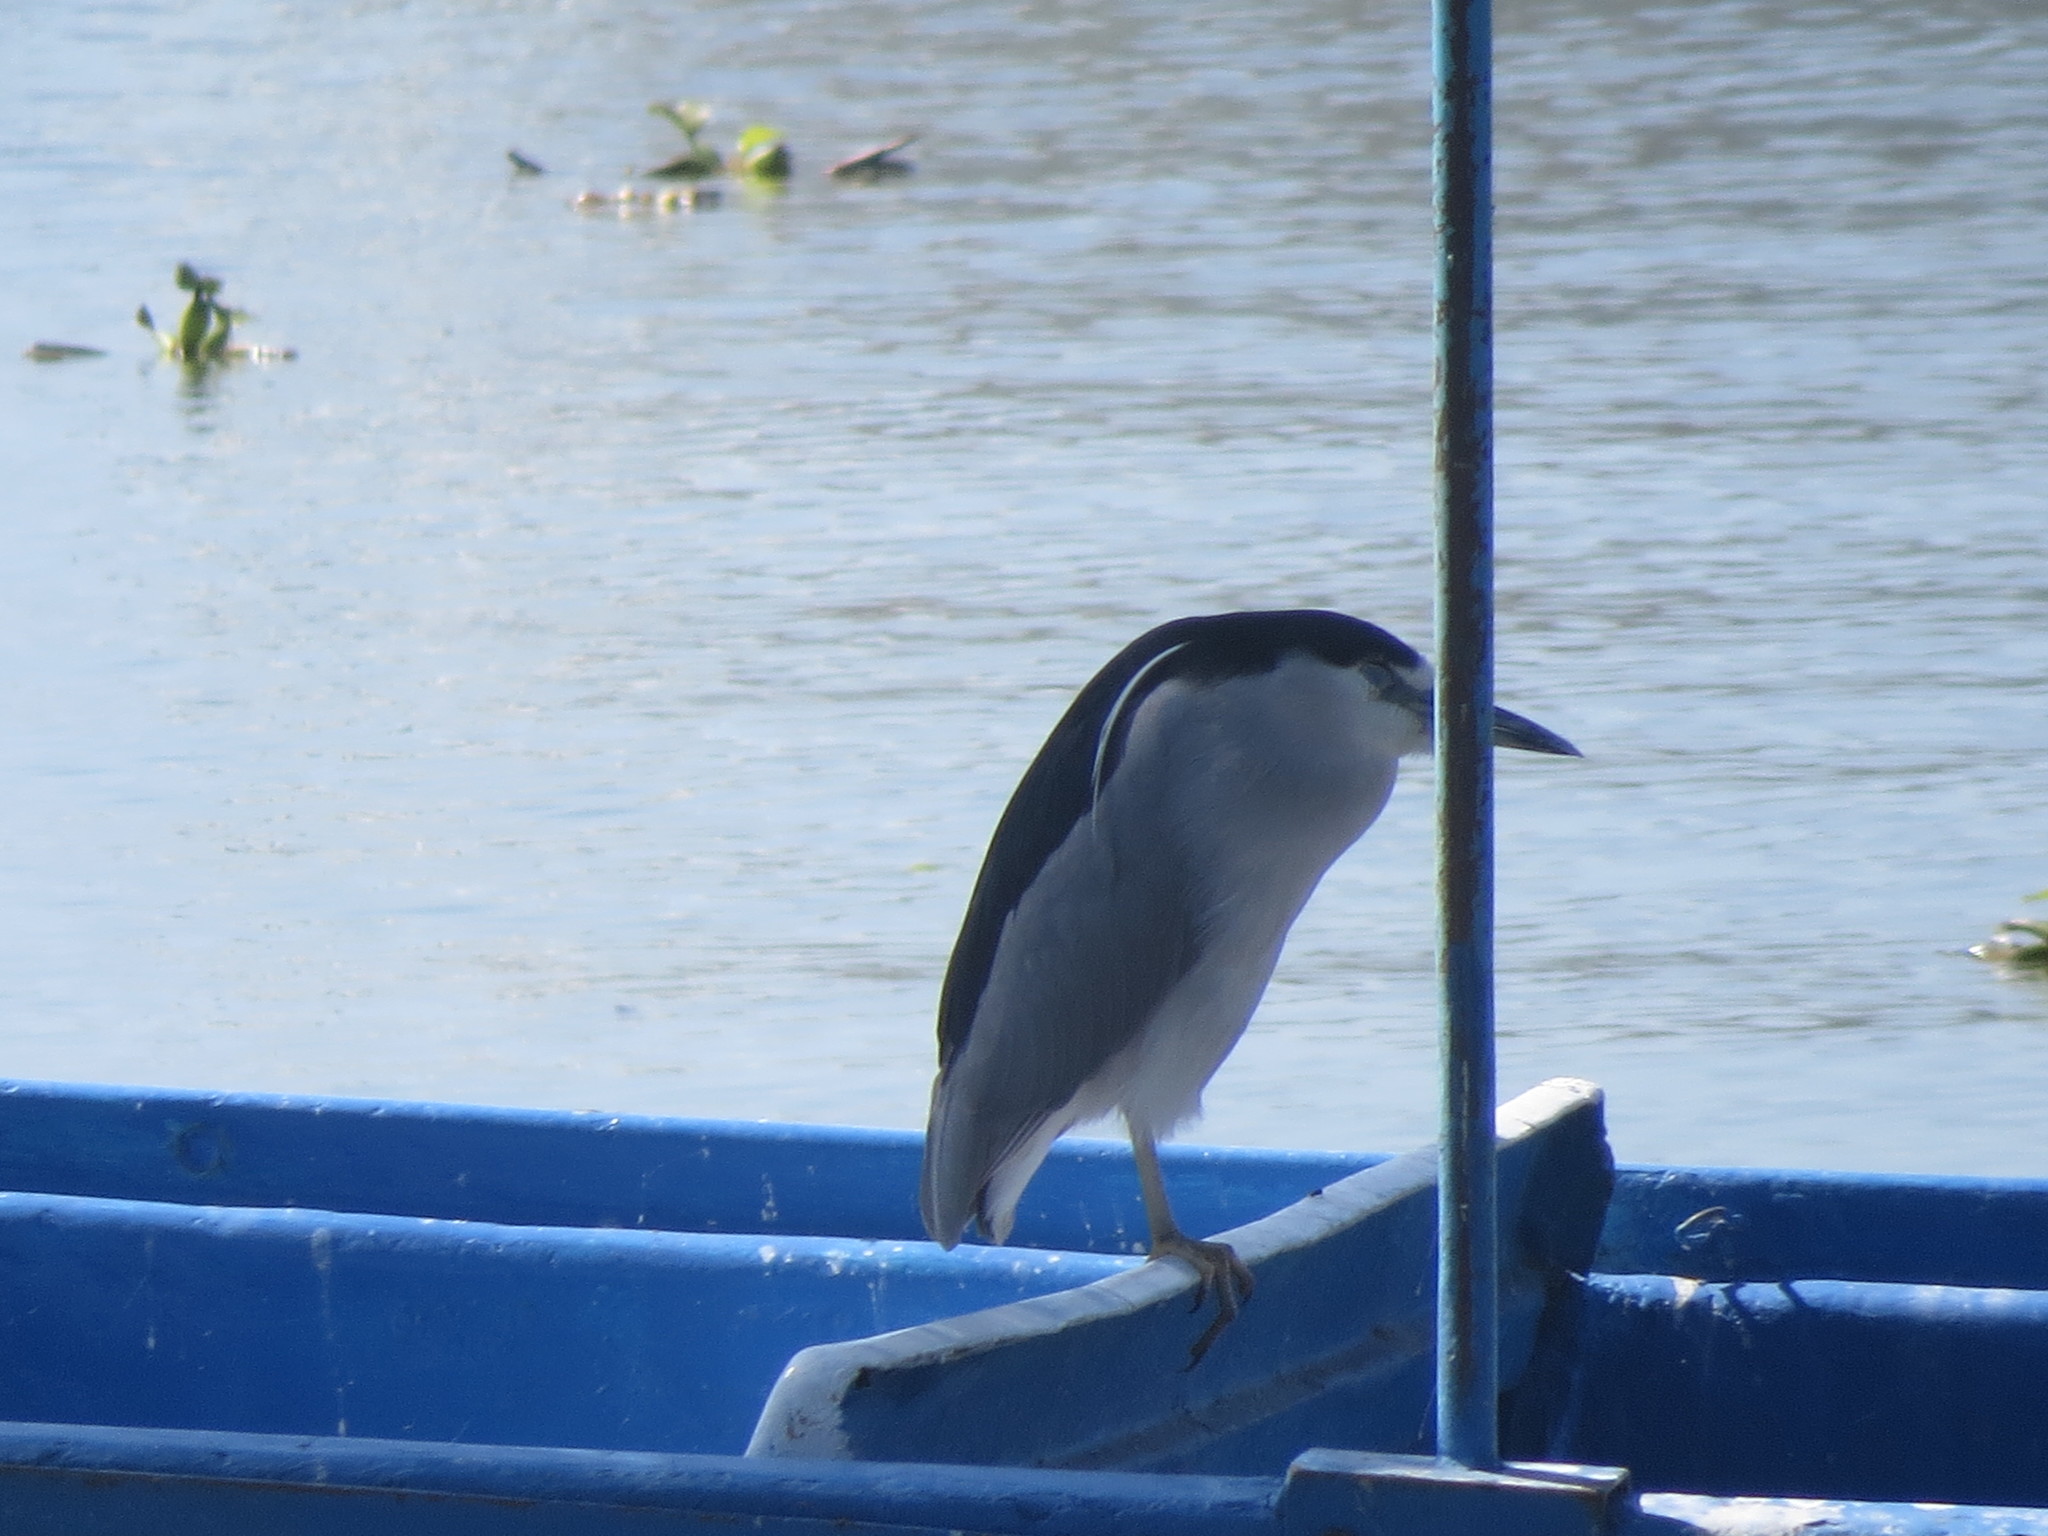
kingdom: Animalia
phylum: Chordata
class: Aves
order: Pelecaniformes
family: Ardeidae
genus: Nycticorax
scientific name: Nycticorax nycticorax
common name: Black-crowned night heron
